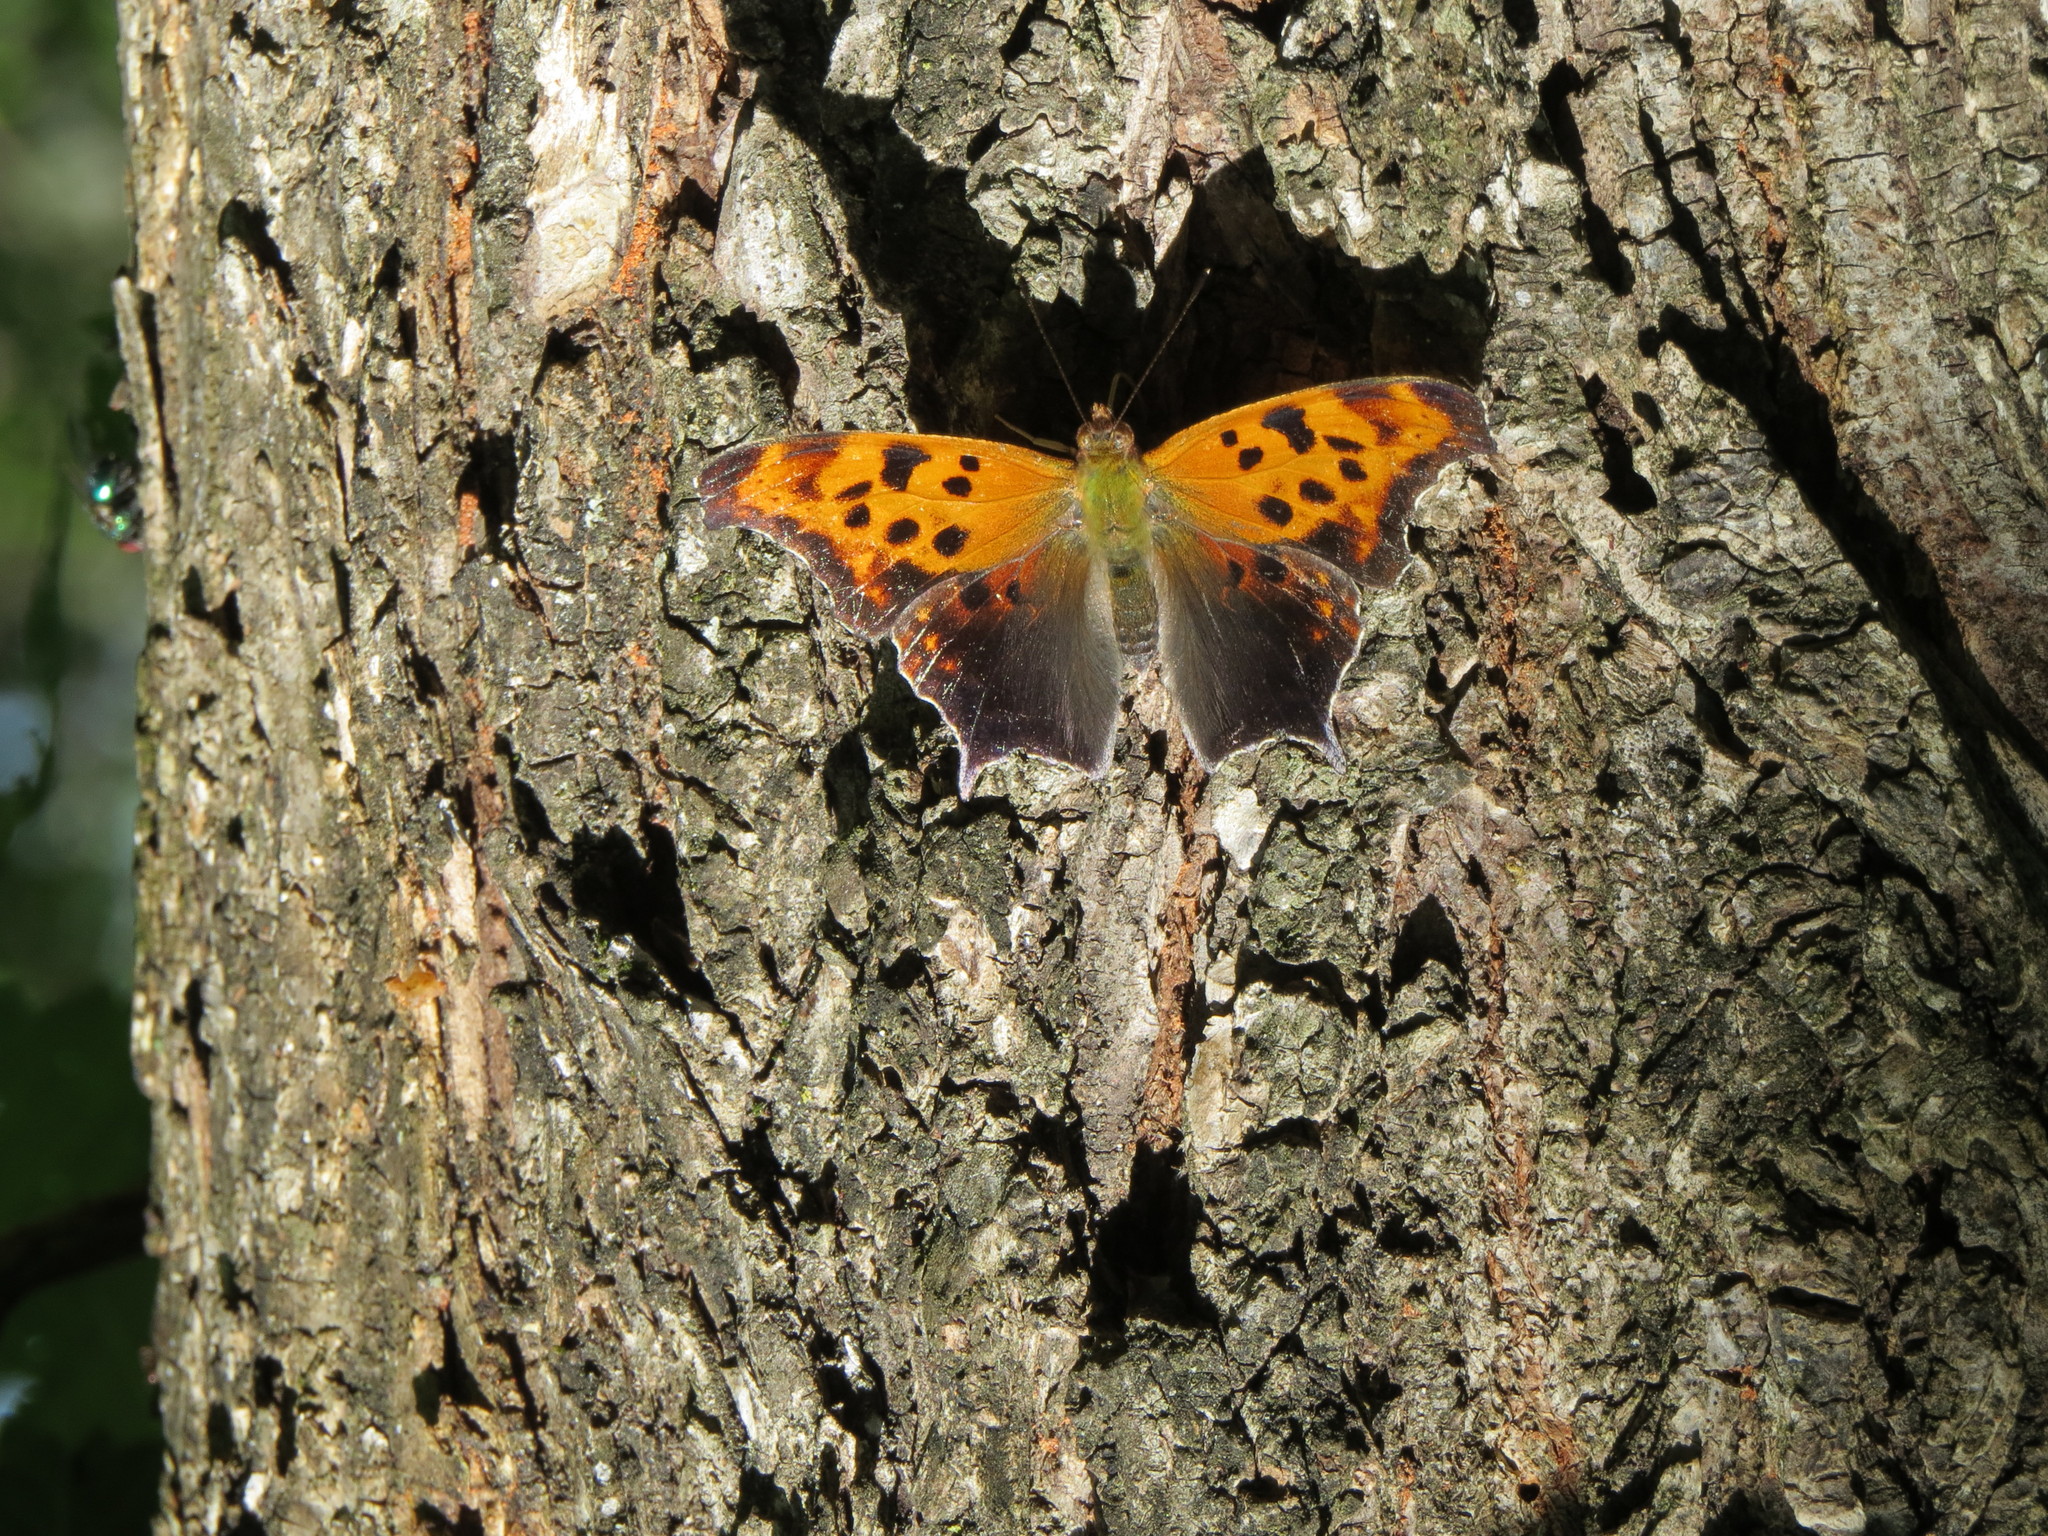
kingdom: Animalia
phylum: Arthropoda
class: Insecta
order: Lepidoptera
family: Nymphalidae
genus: Polygonia
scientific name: Polygonia interrogationis
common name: Question mark
